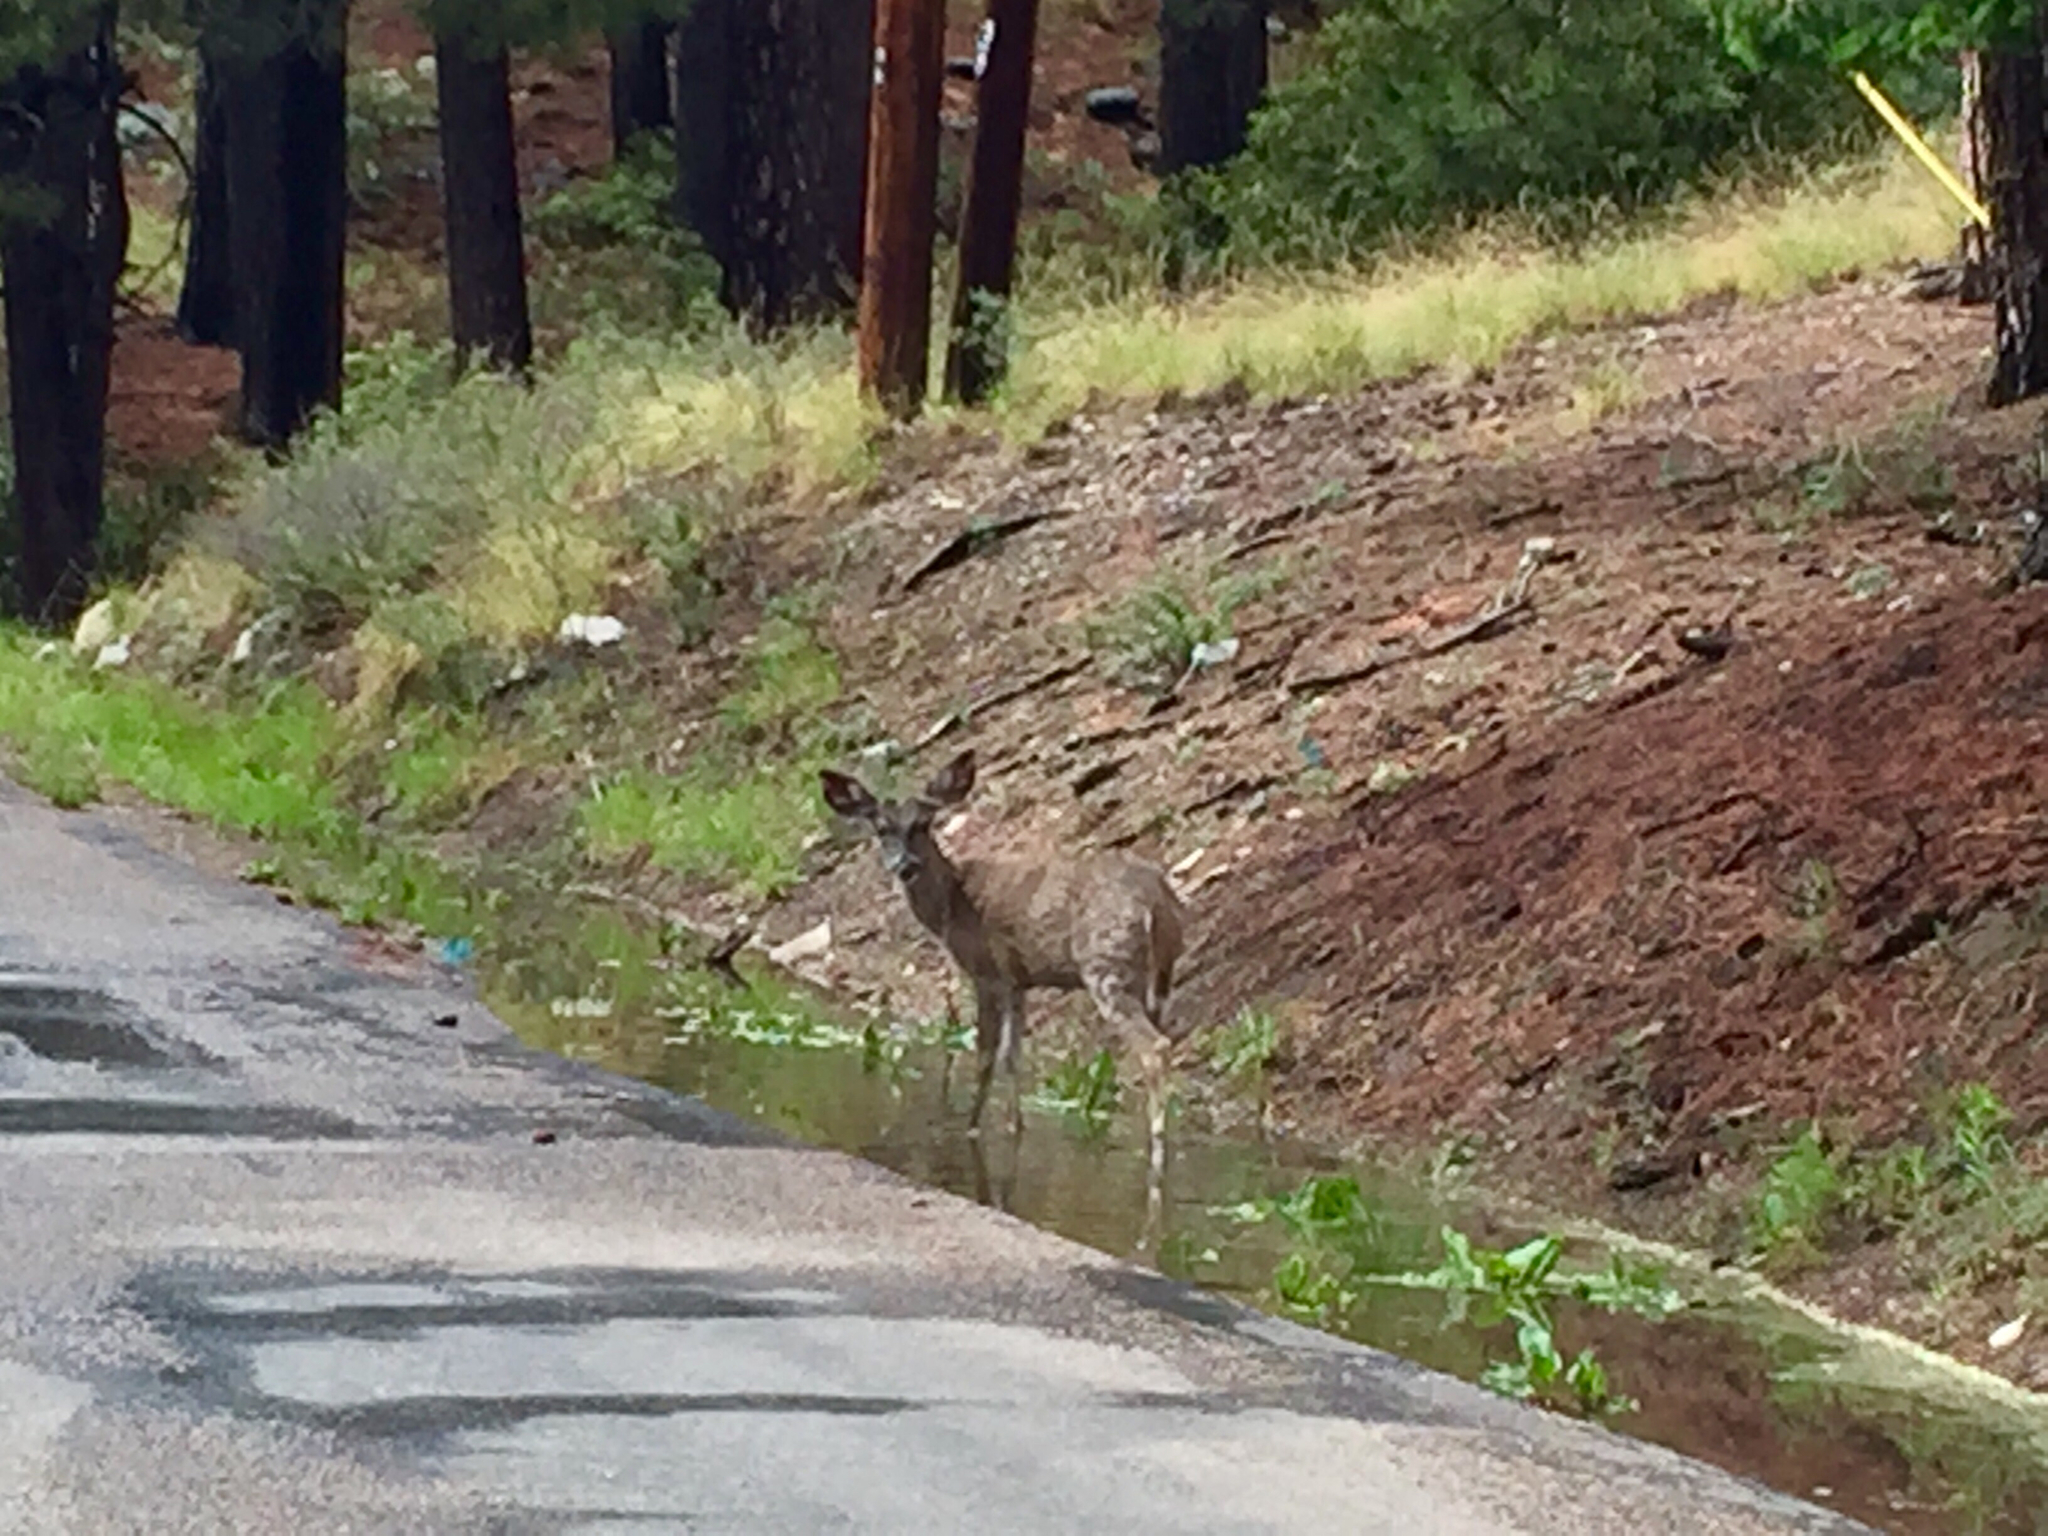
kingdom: Animalia
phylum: Chordata
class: Mammalia
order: Artiodactyla
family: Cervidae
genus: Odocoileus
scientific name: Odocoileus virginianus
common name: White-tailed deer
